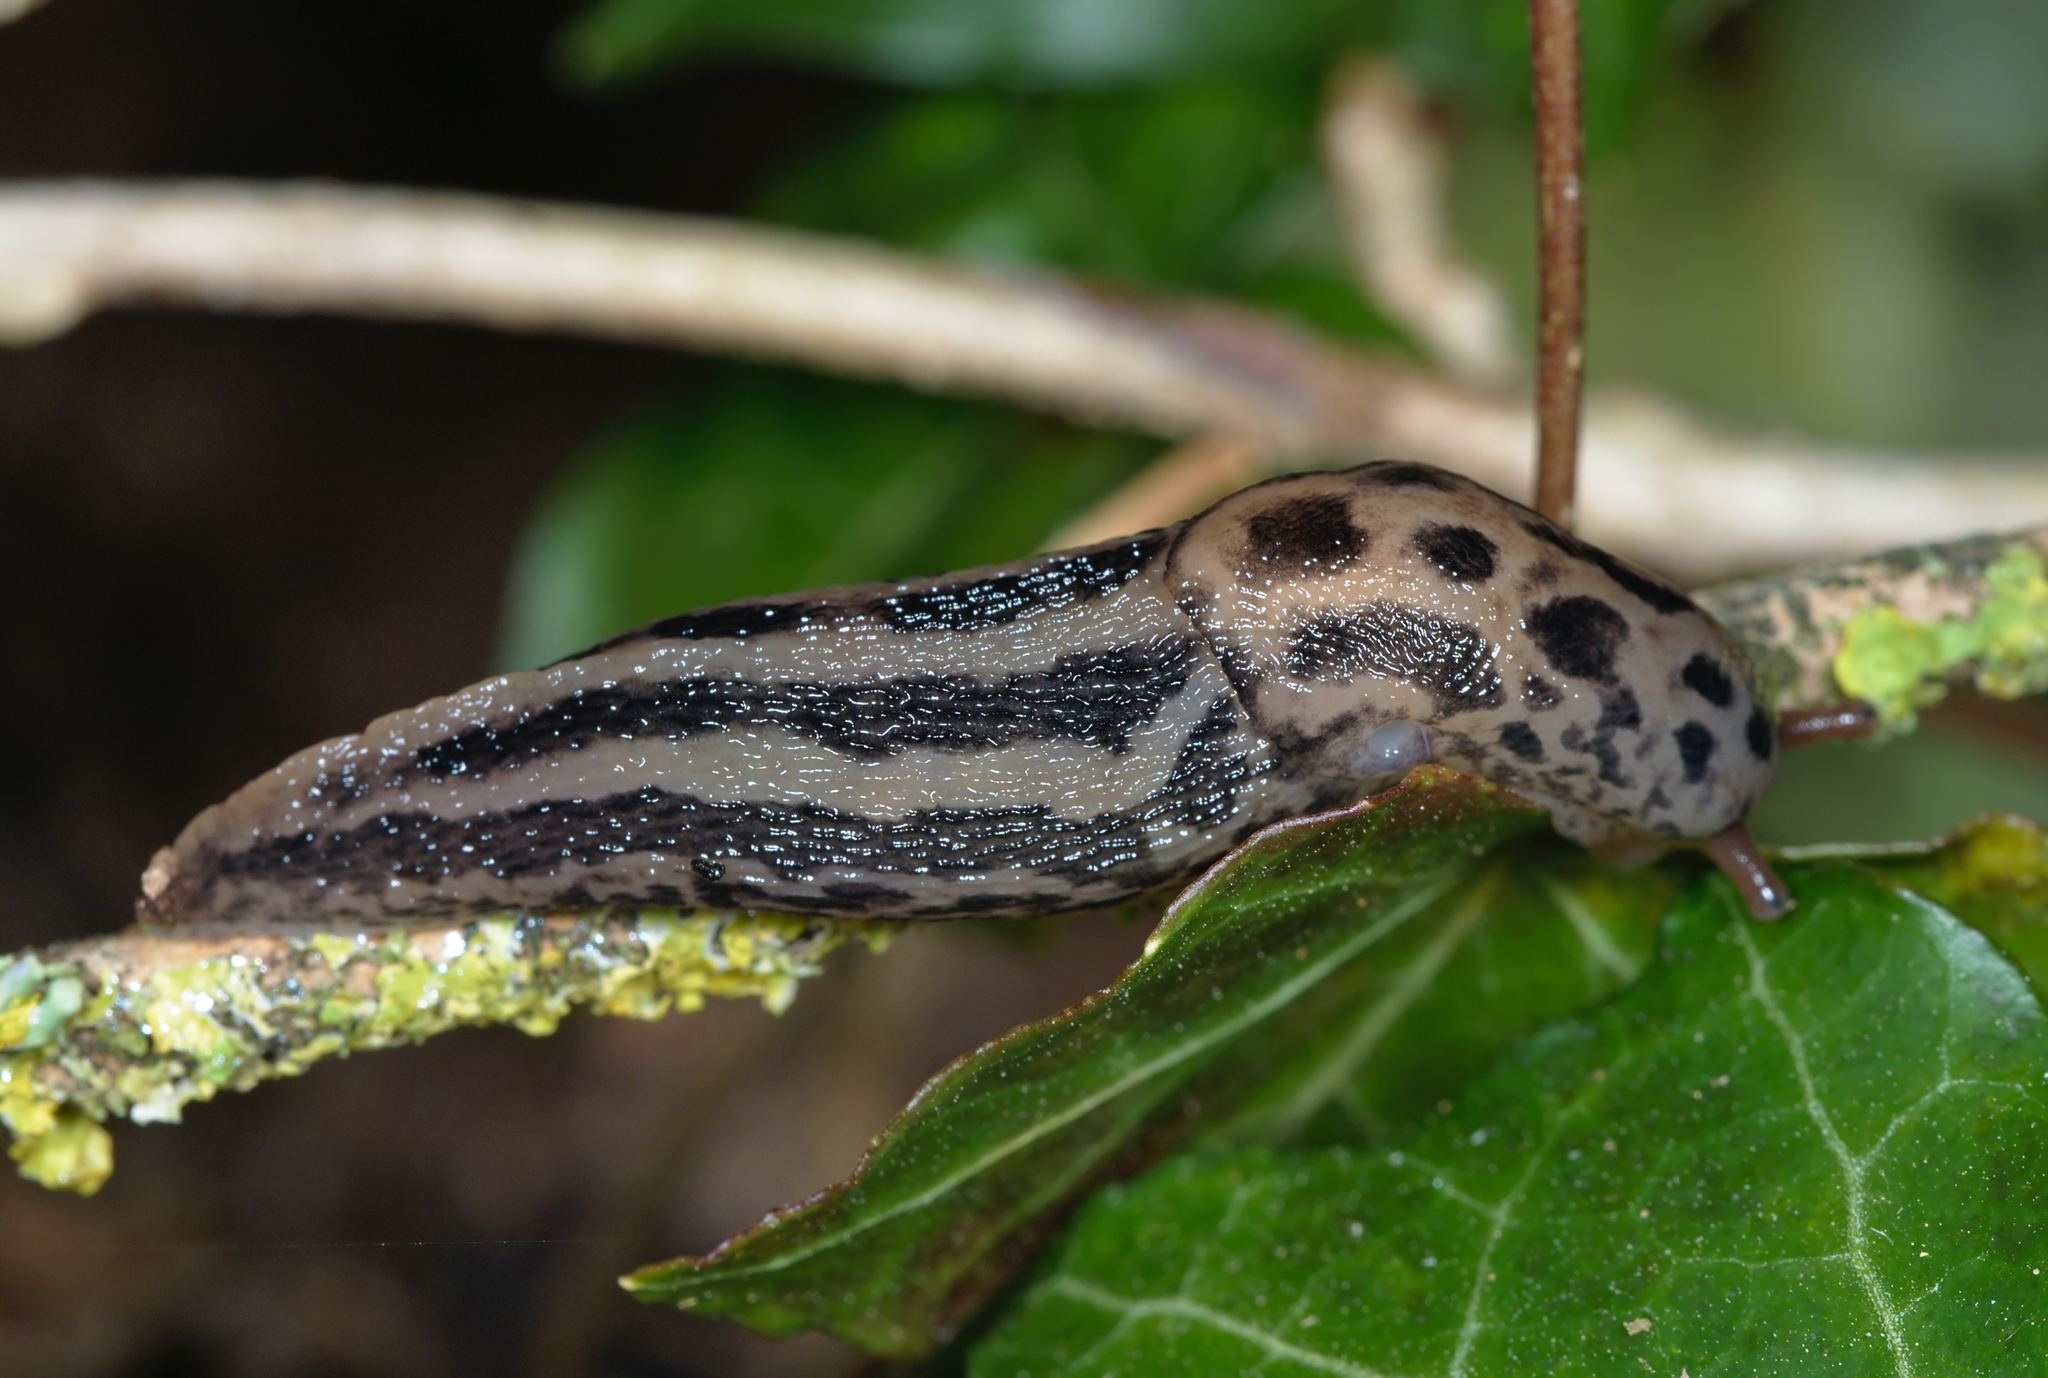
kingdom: Animalia
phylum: Mollusca
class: Gastropoda
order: Stylommatophora
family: Limacidae
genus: Limax
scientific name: Limax maximus
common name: Great grey slug
